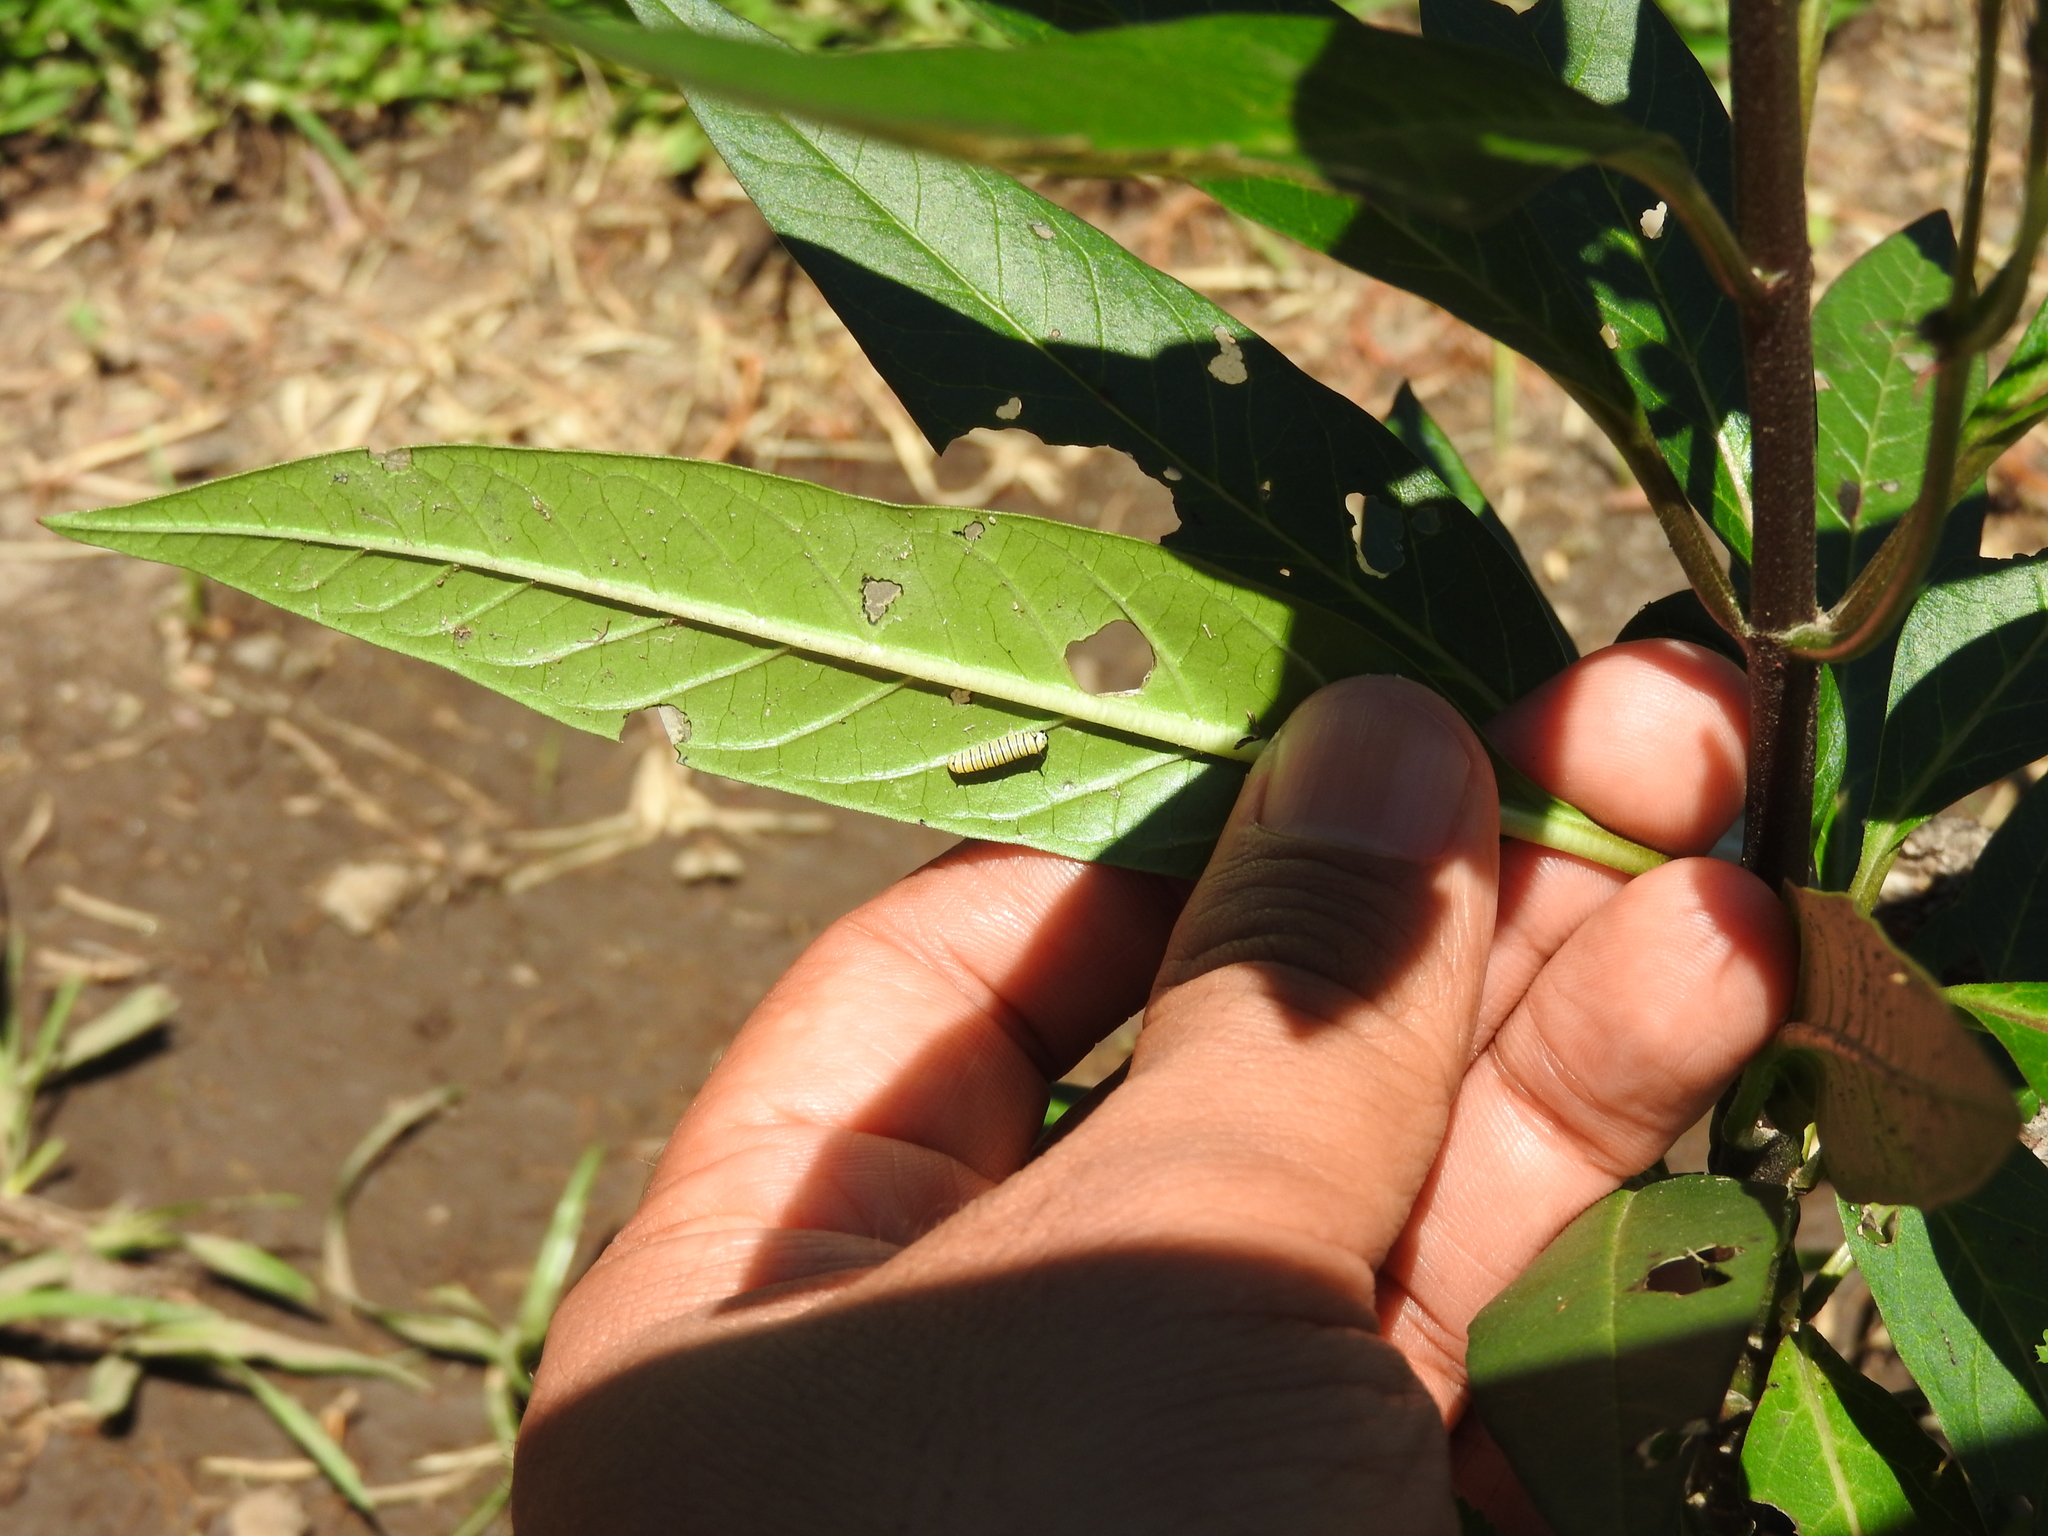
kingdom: Animalia
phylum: Arthropoda
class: Insecta
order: Lepidoptera
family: Nymphalidae
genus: Danaus
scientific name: Danaus plexippus
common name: Monarch
